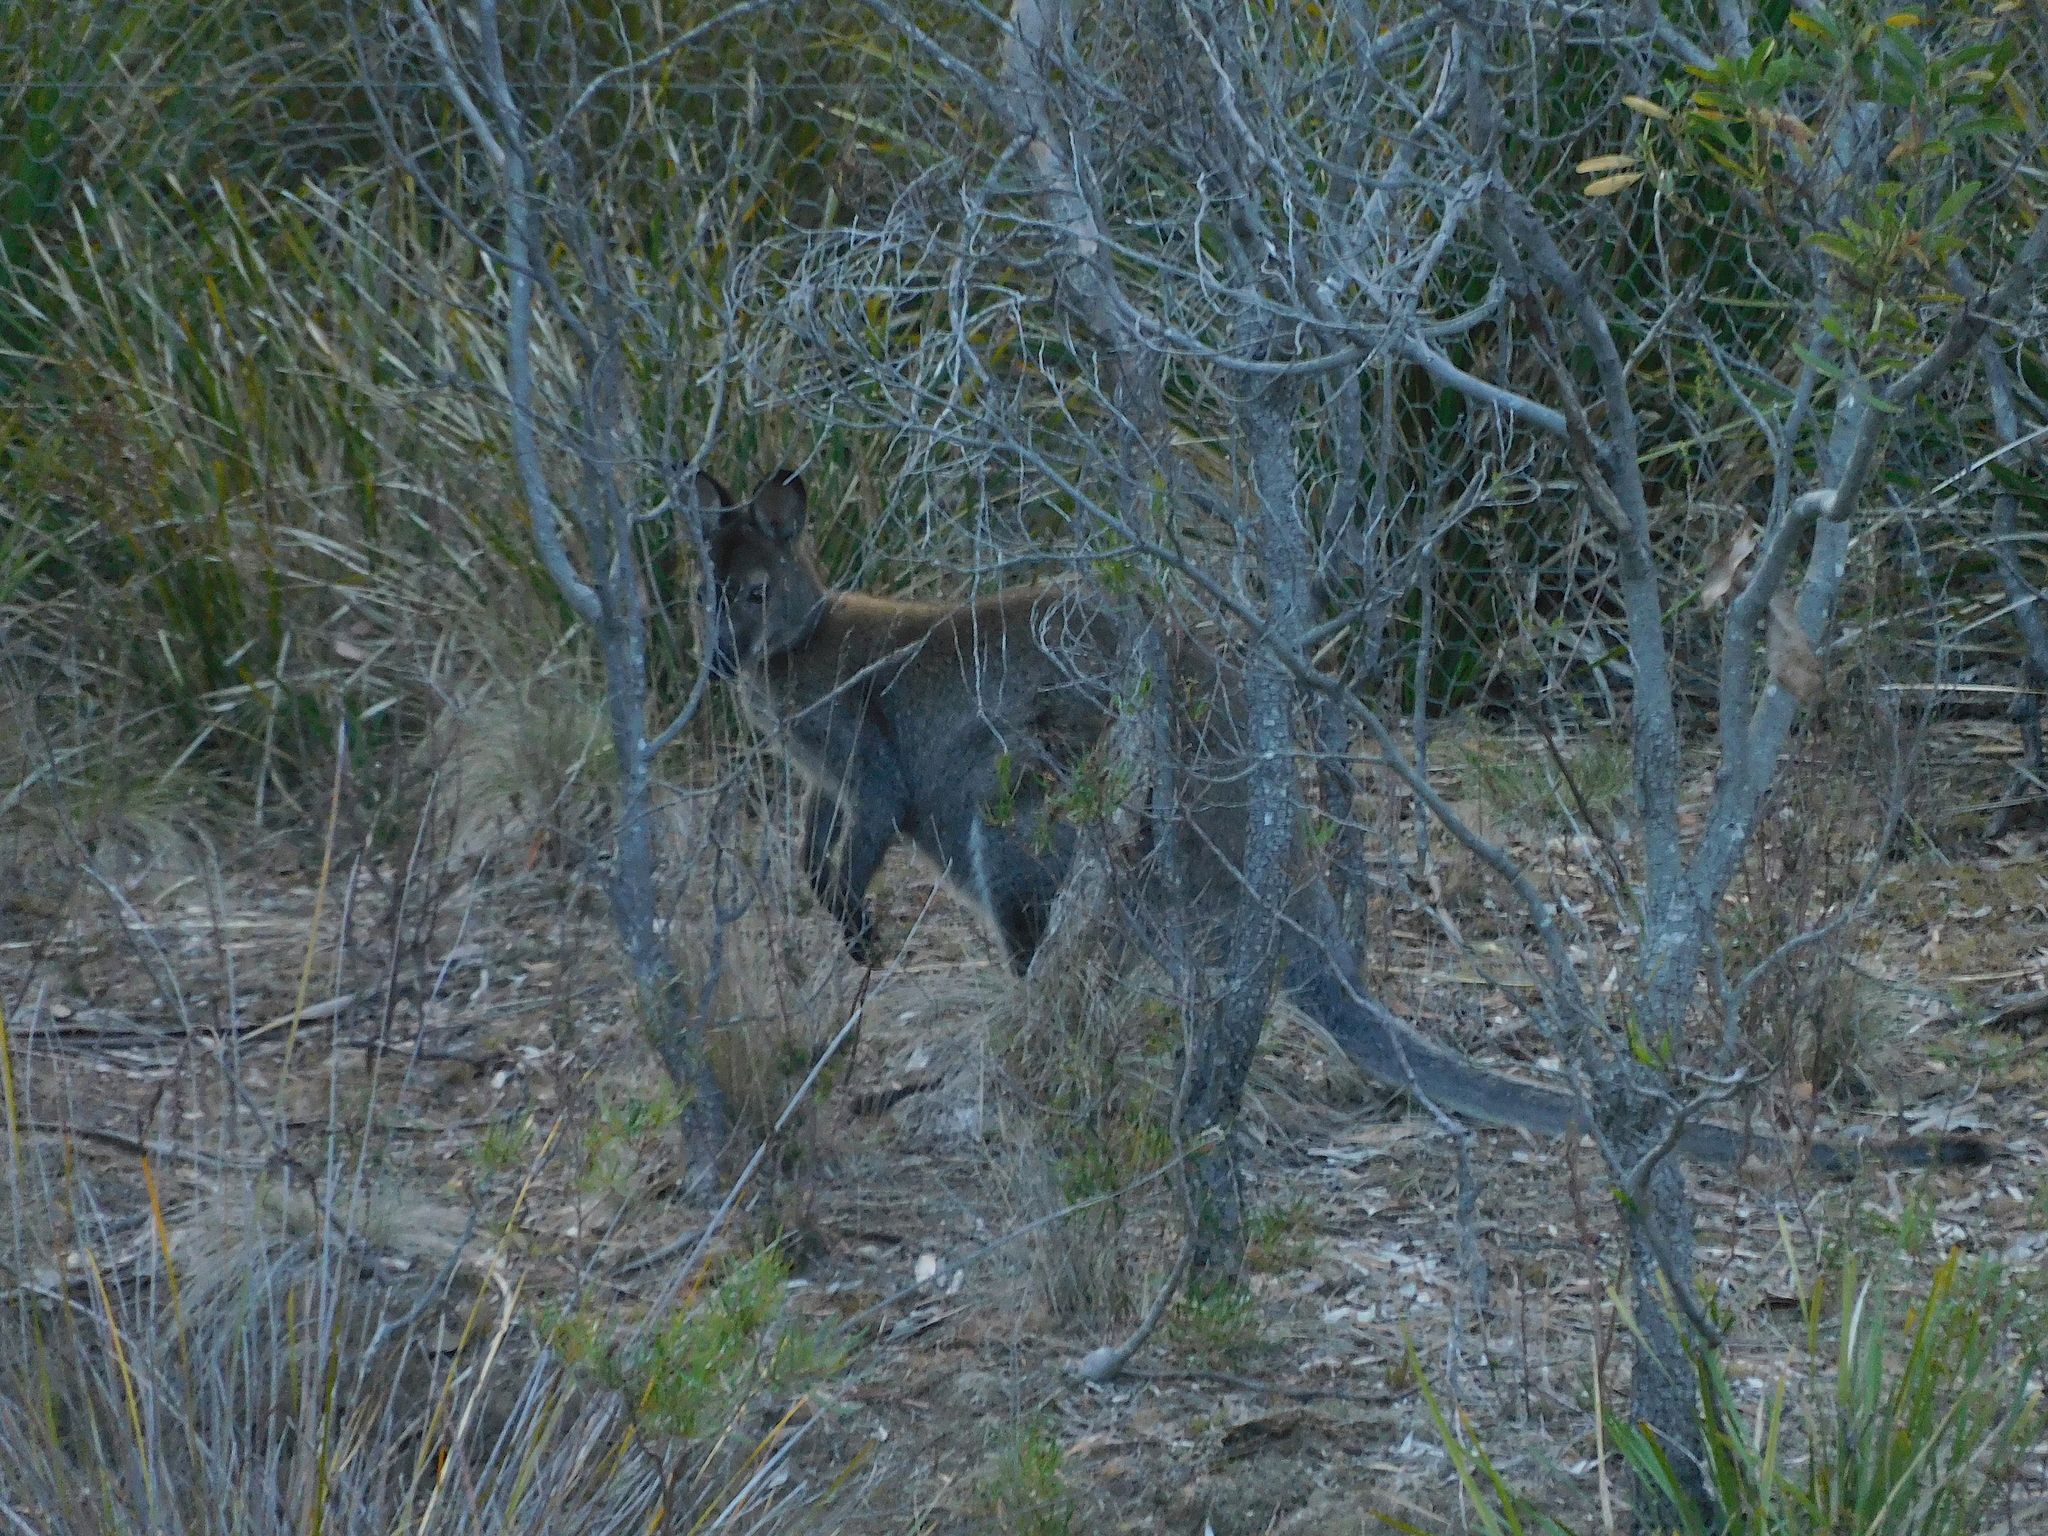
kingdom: Animalia
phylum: Chordata
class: Mammalia
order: Diprotodontia
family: Macropodidae
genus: Notamacropus
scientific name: Notamacropus rufogriseus
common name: Red-necked wallaby
